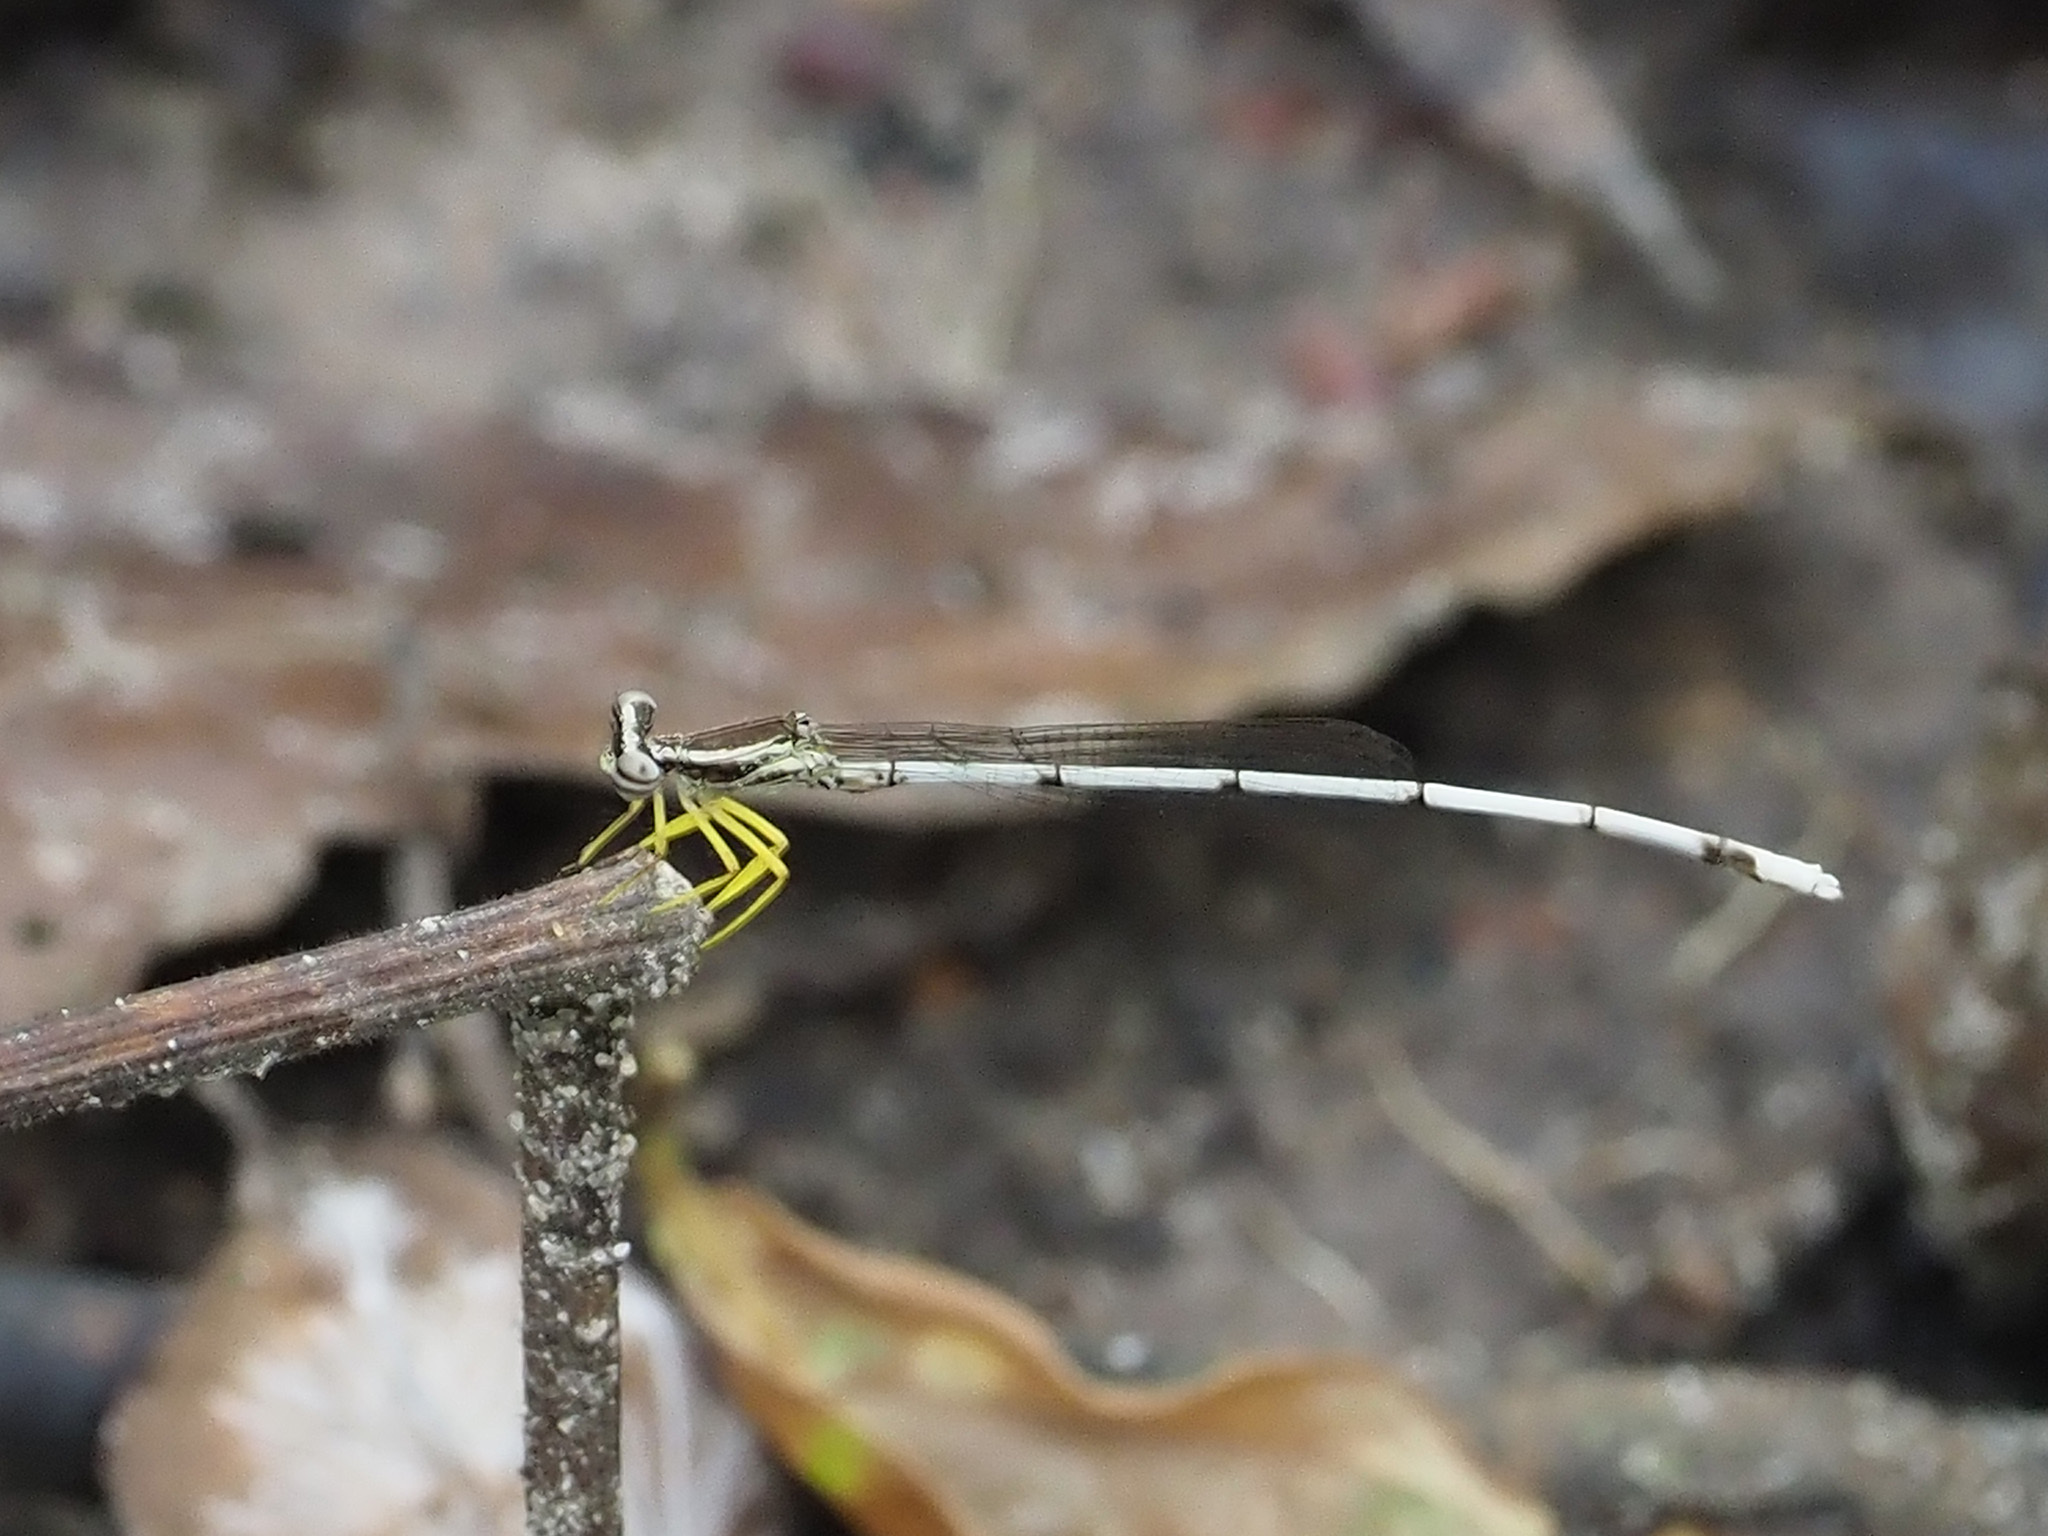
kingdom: Animalia
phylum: Arthropoda
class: Insecta
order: Odonata
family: Platycnemididae
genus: Copera
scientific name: Copera marginipes
